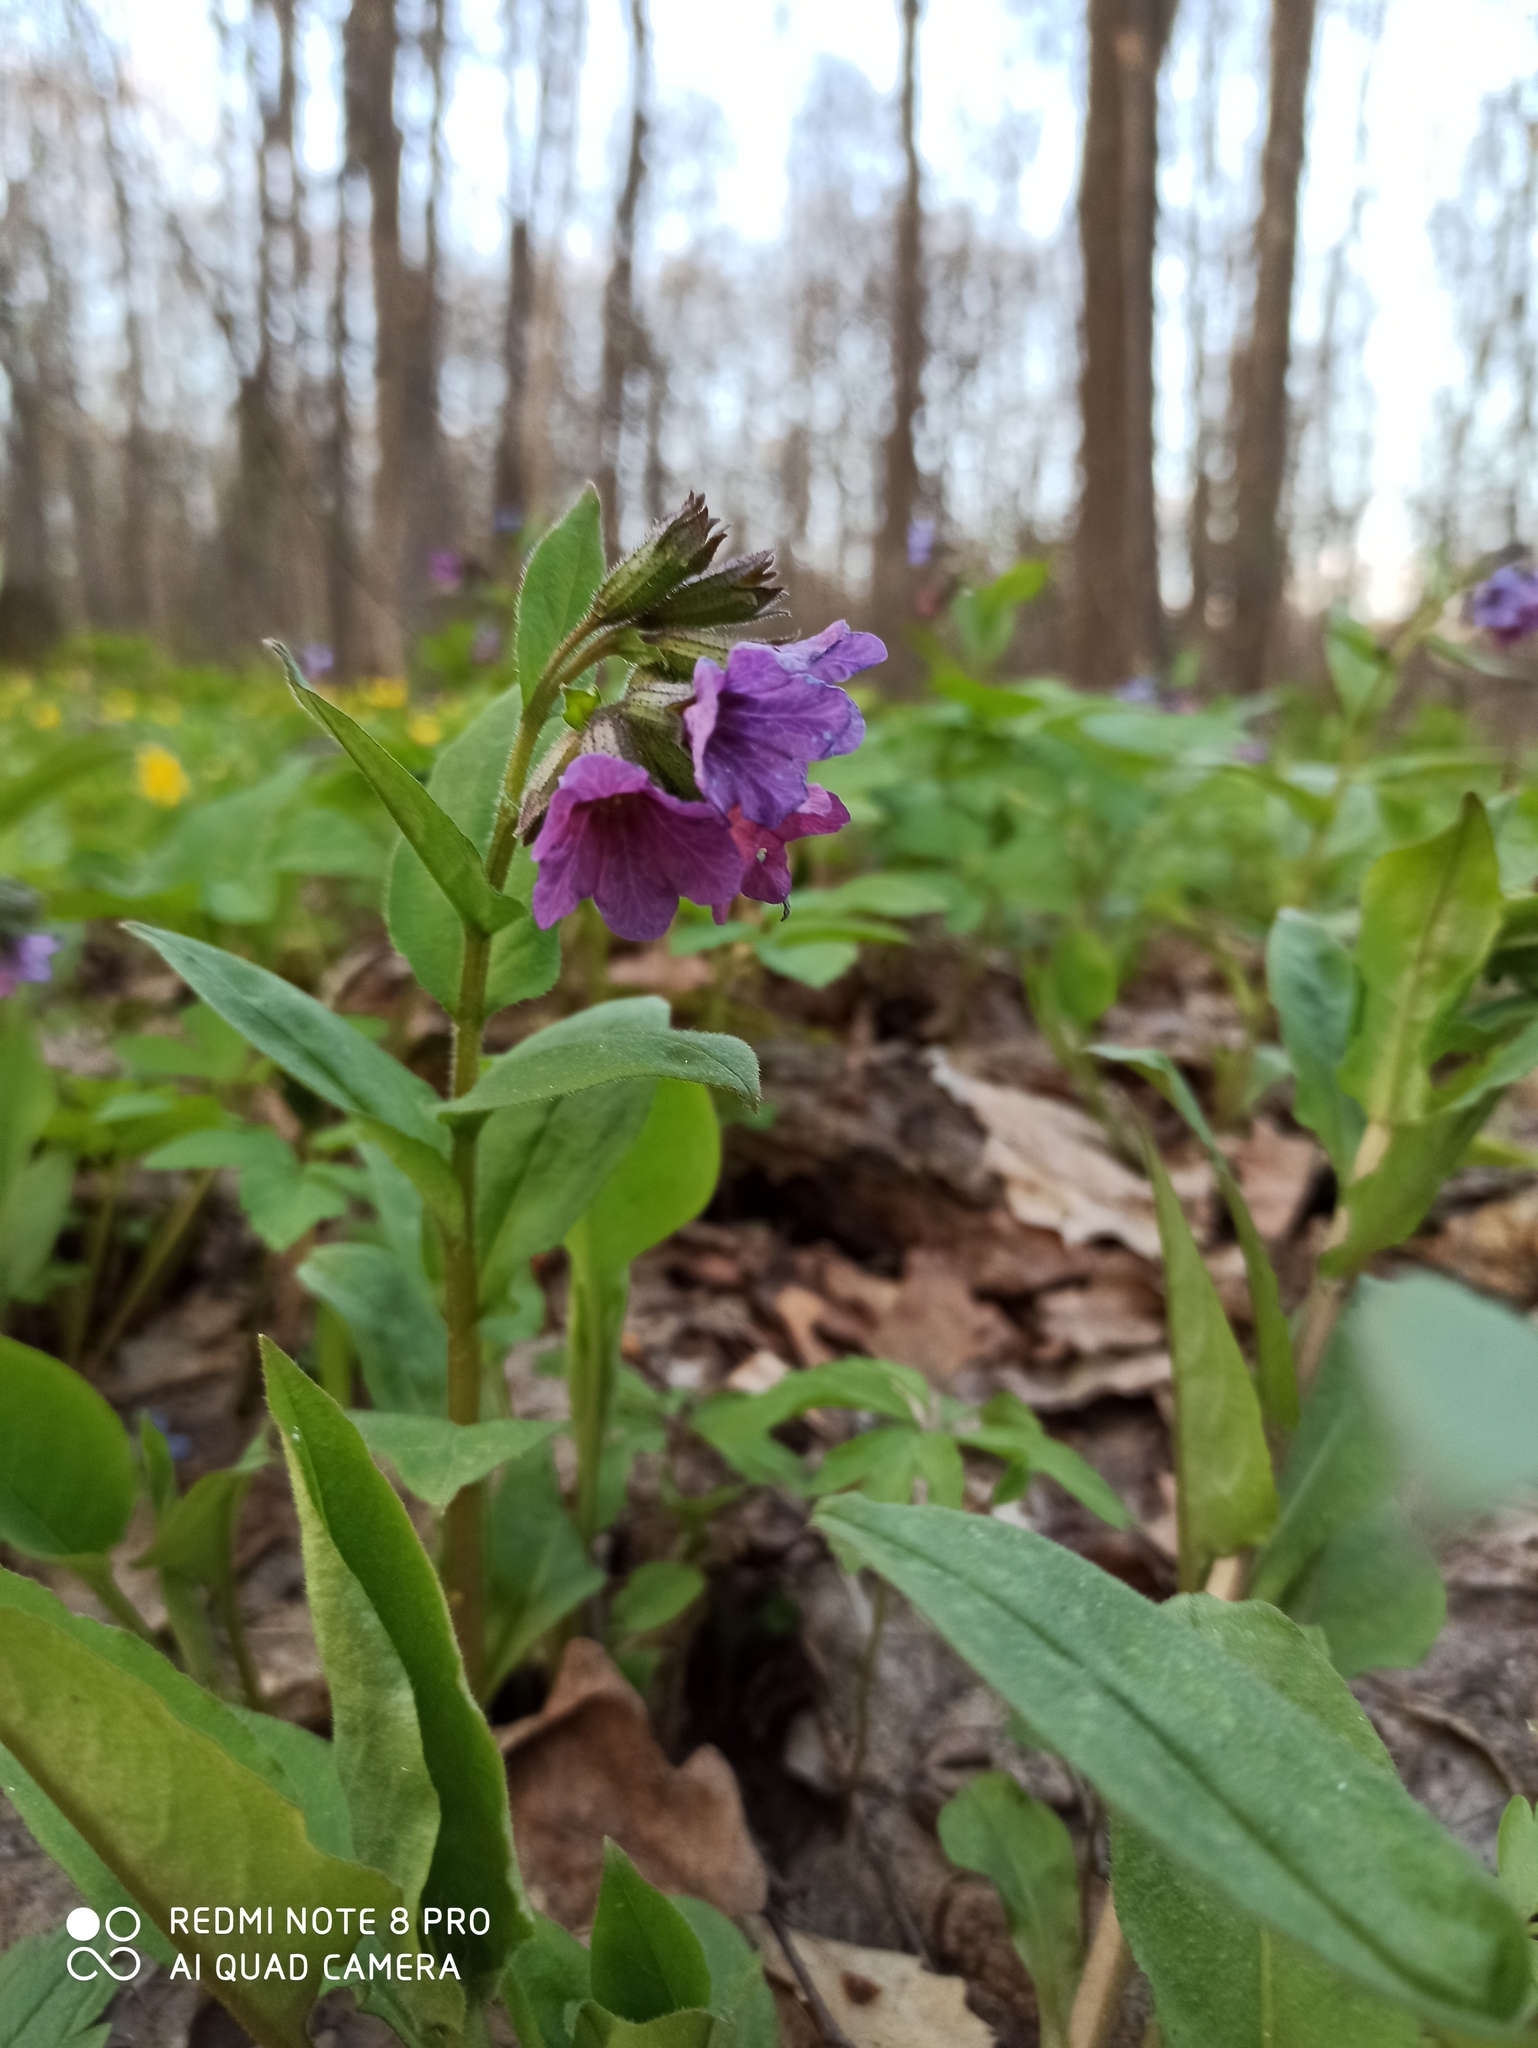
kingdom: Plantae
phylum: Tracheophyta
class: Magnoliopsida
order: Boraginales
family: Boraginaceae
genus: Pulmonaria
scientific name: Pulmonaria obscura
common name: Suffolk lungwort
